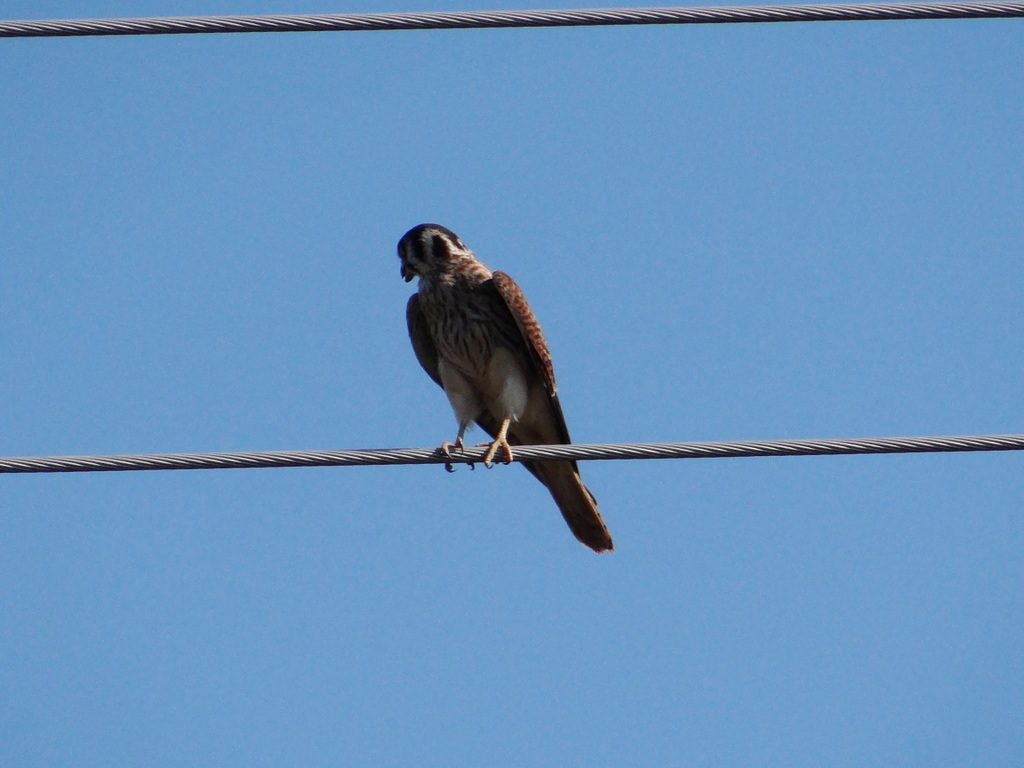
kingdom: Animalia
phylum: Chordata
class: Aves
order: Falconiformes
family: Falconidae
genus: Falco
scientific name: Falco sparverius
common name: American kestrel
